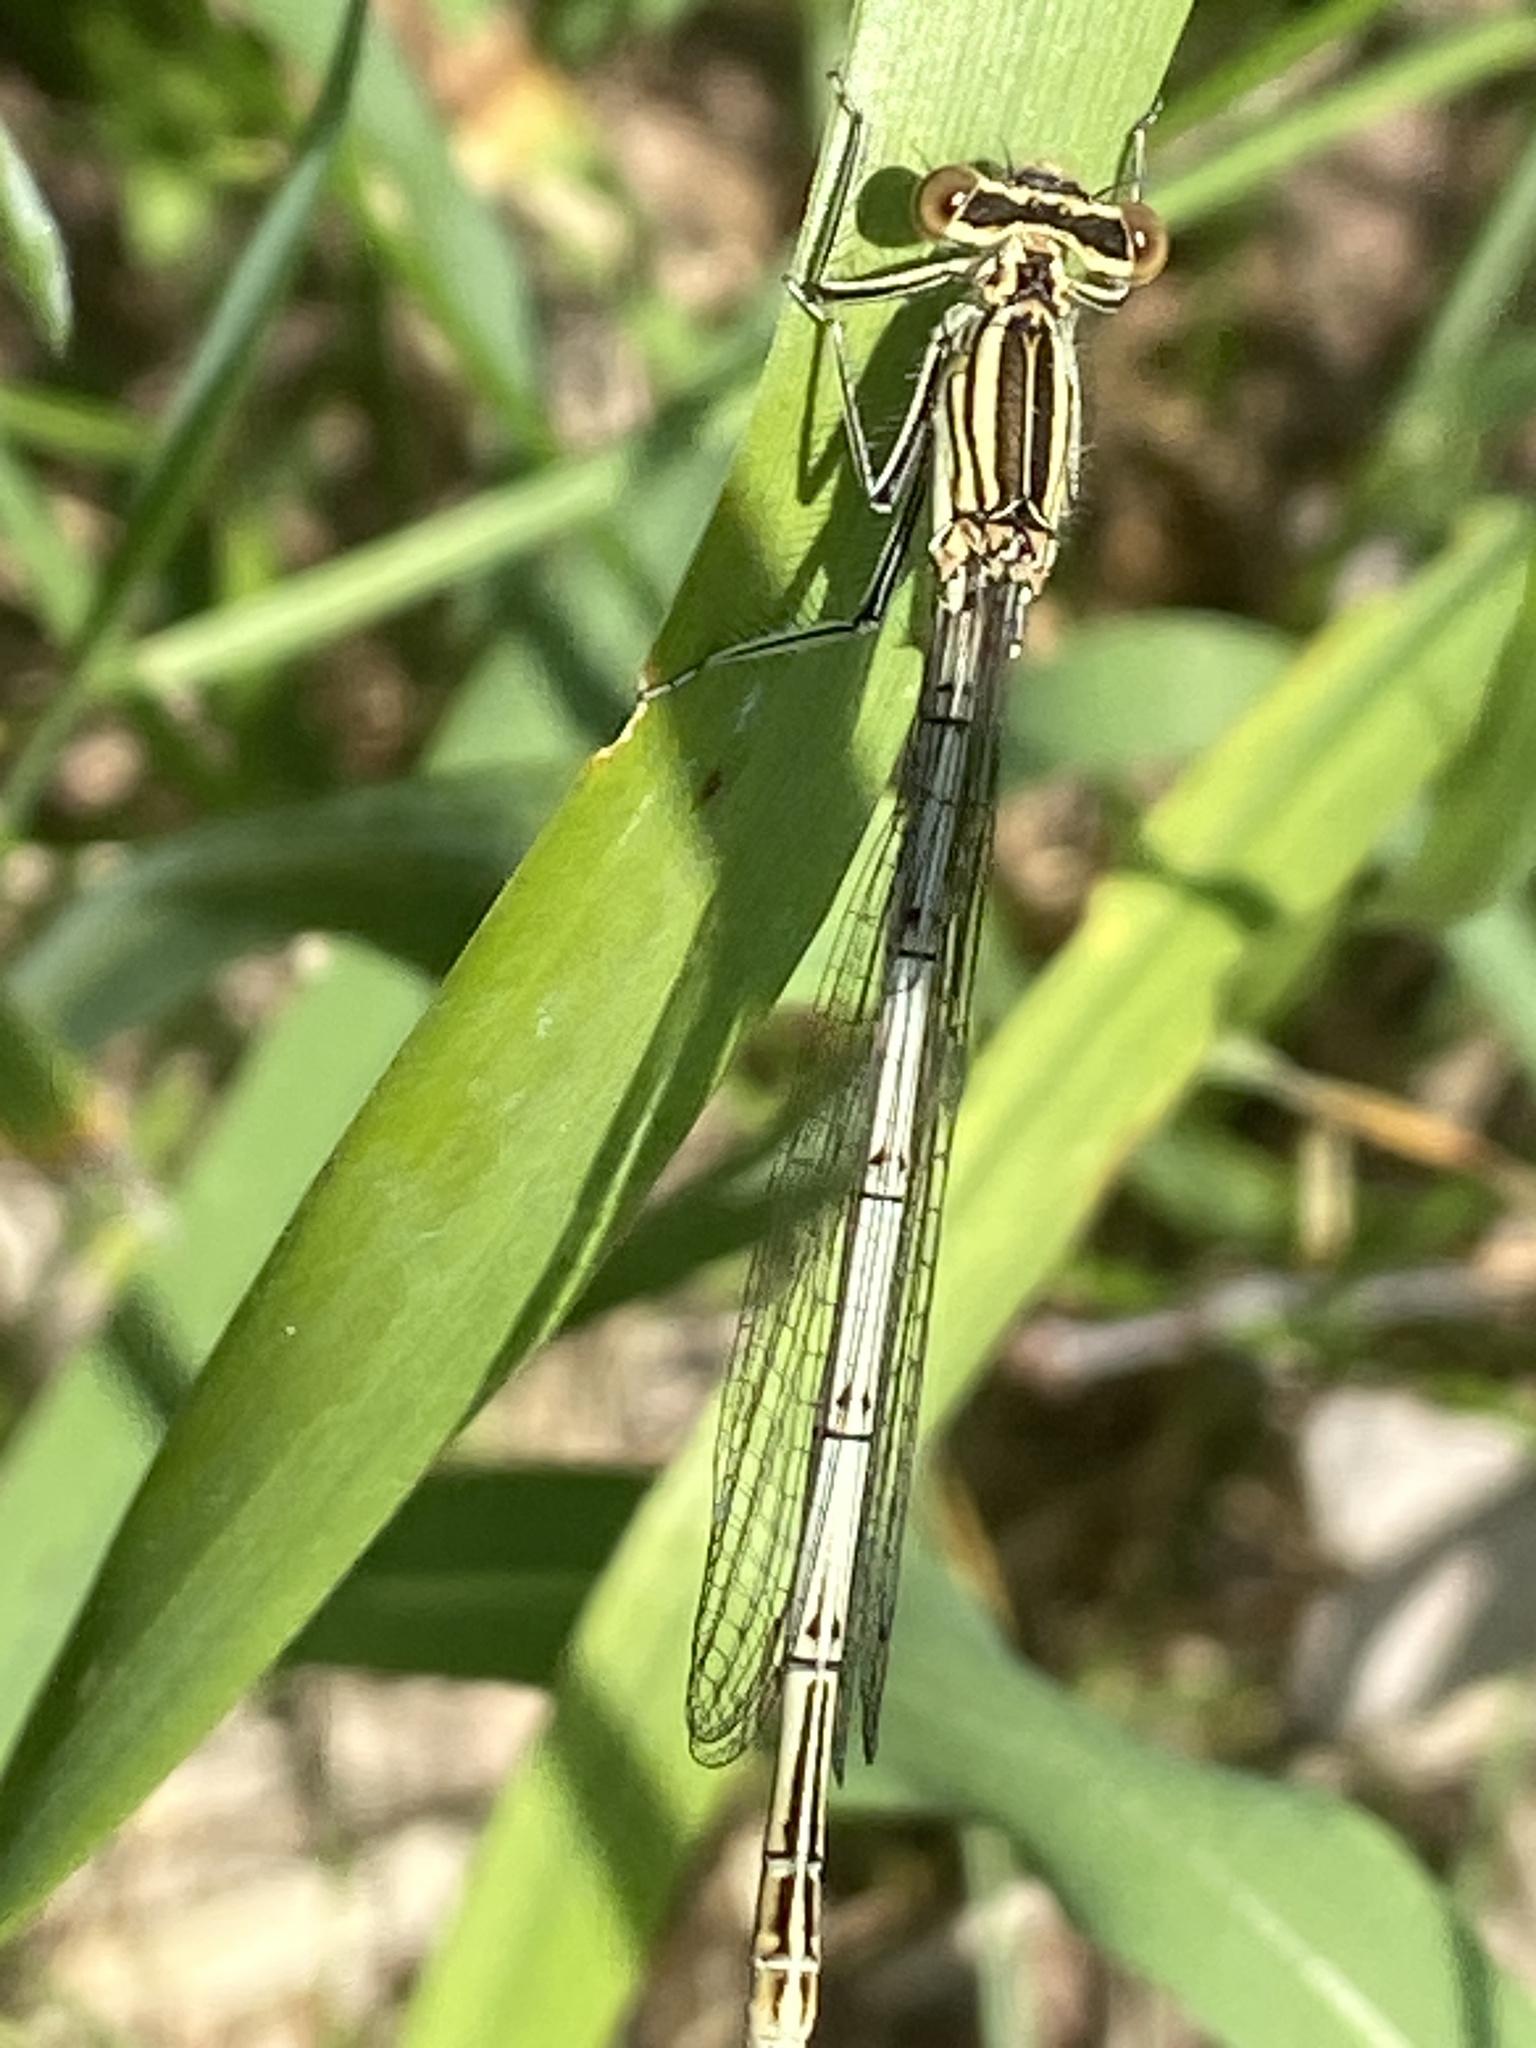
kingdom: Animalia
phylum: Arthropoda
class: Insecta
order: Odonata
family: Platycnemididae
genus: Platycnemis
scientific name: Platycnemis pennipes
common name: White-legged damselfly
